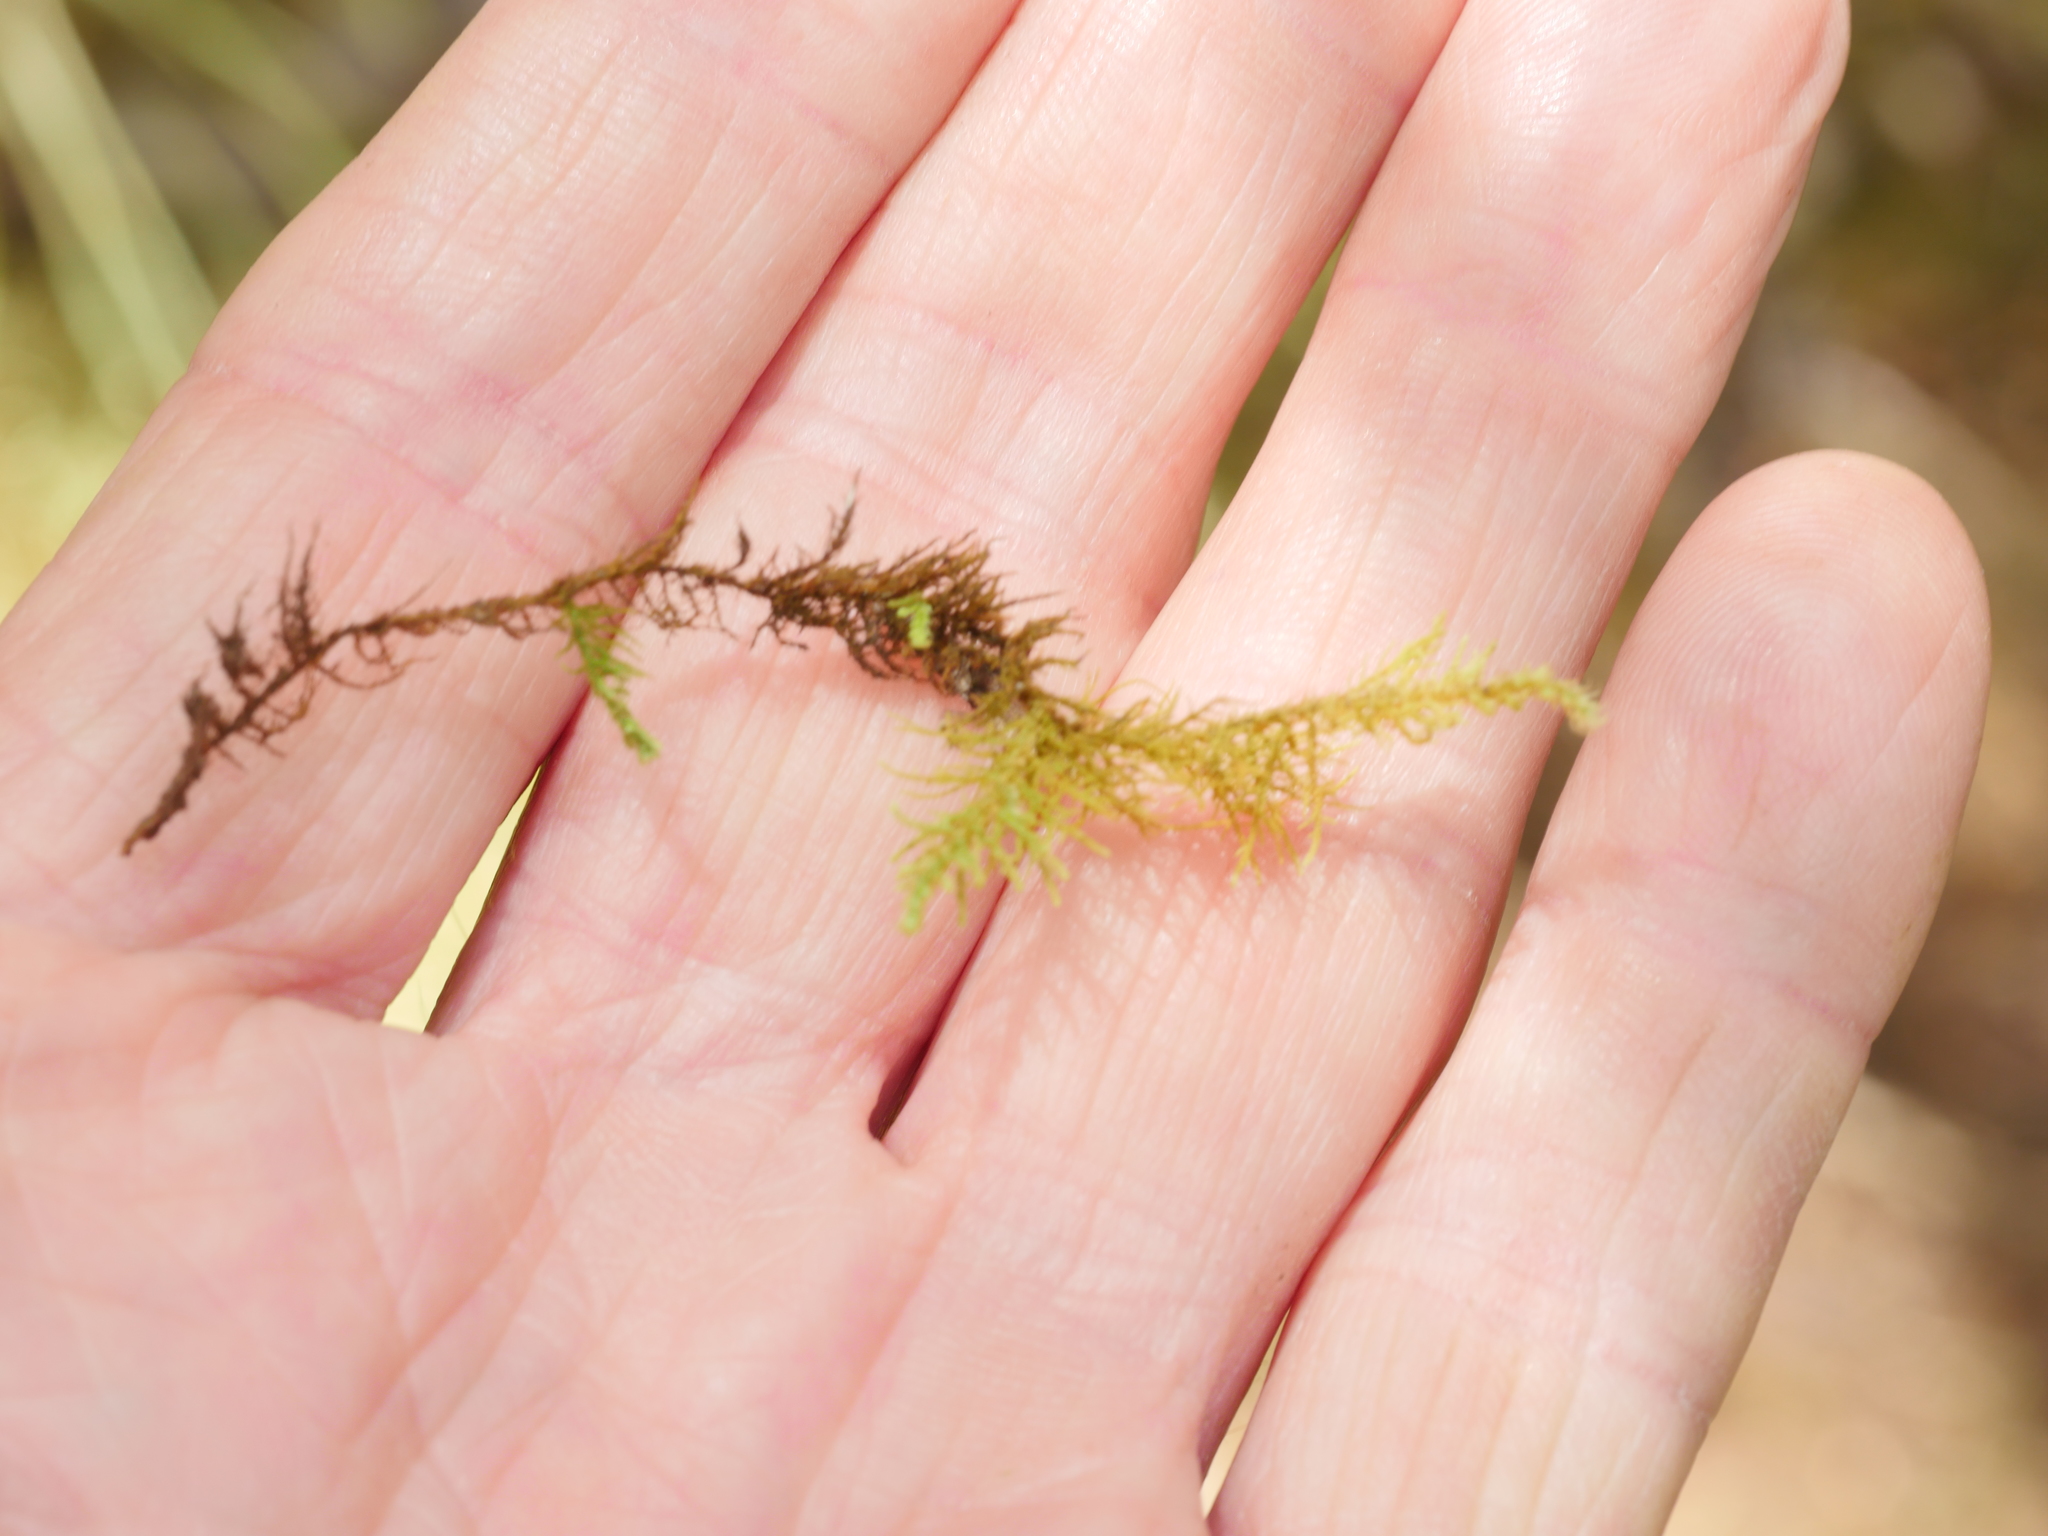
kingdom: Plantae
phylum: Bryophyta
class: Bryopsida
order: Hypnales
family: Thuidiaceae
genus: Thuidiopsis
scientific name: Thuidiopsis furfurosa
